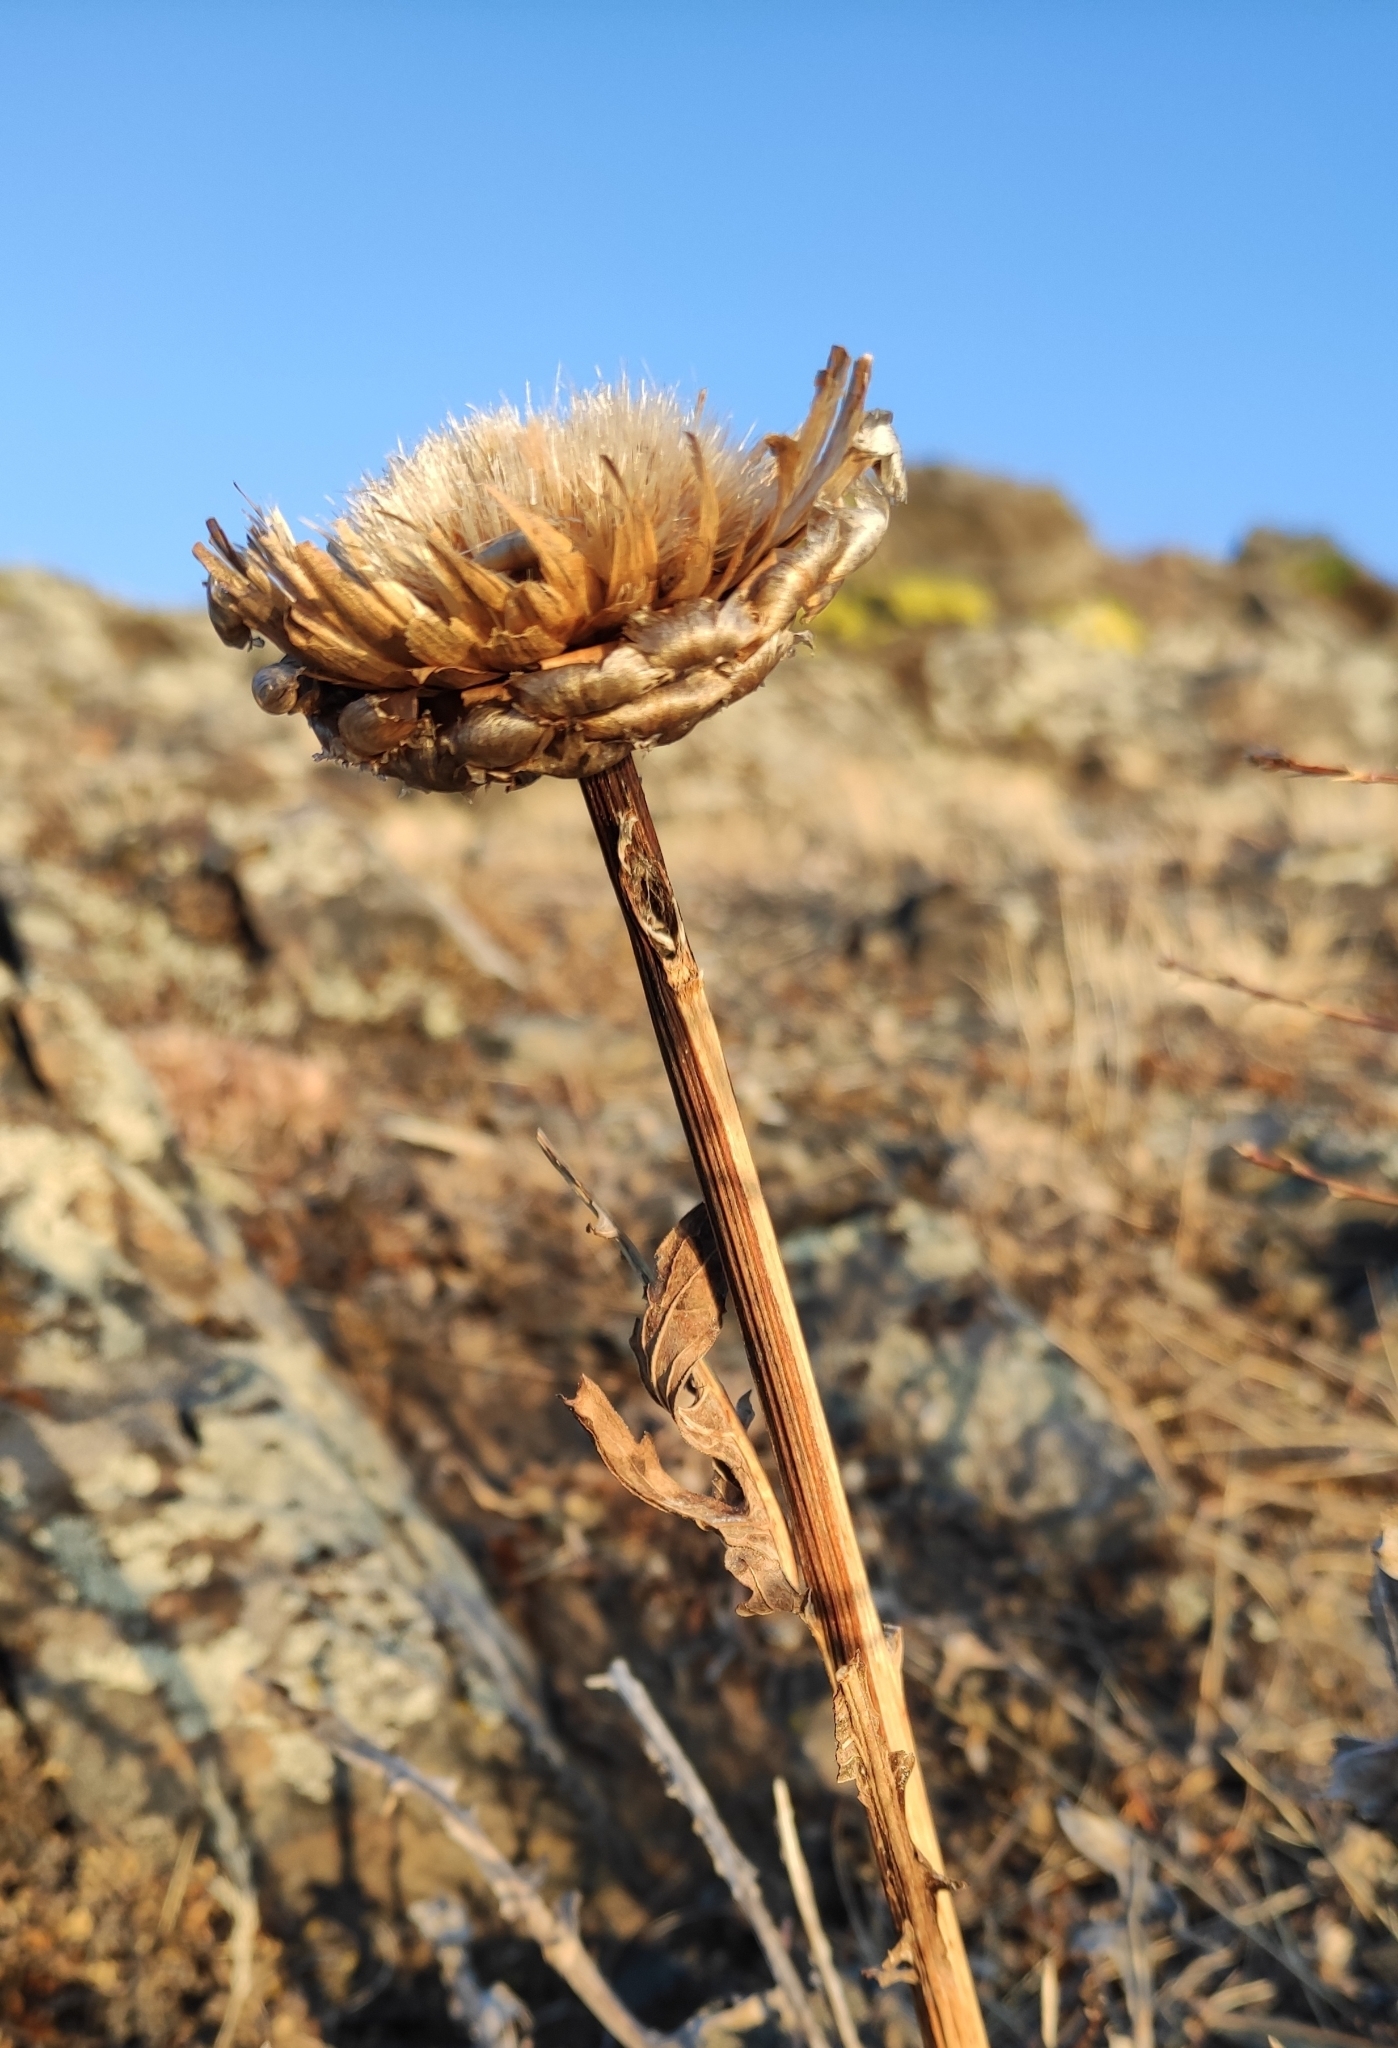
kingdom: Plantae
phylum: Tracheophyta
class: Magnoliopsida
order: Asterales
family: Asteraceae
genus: Leuzea
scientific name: Leuzea uniflora
